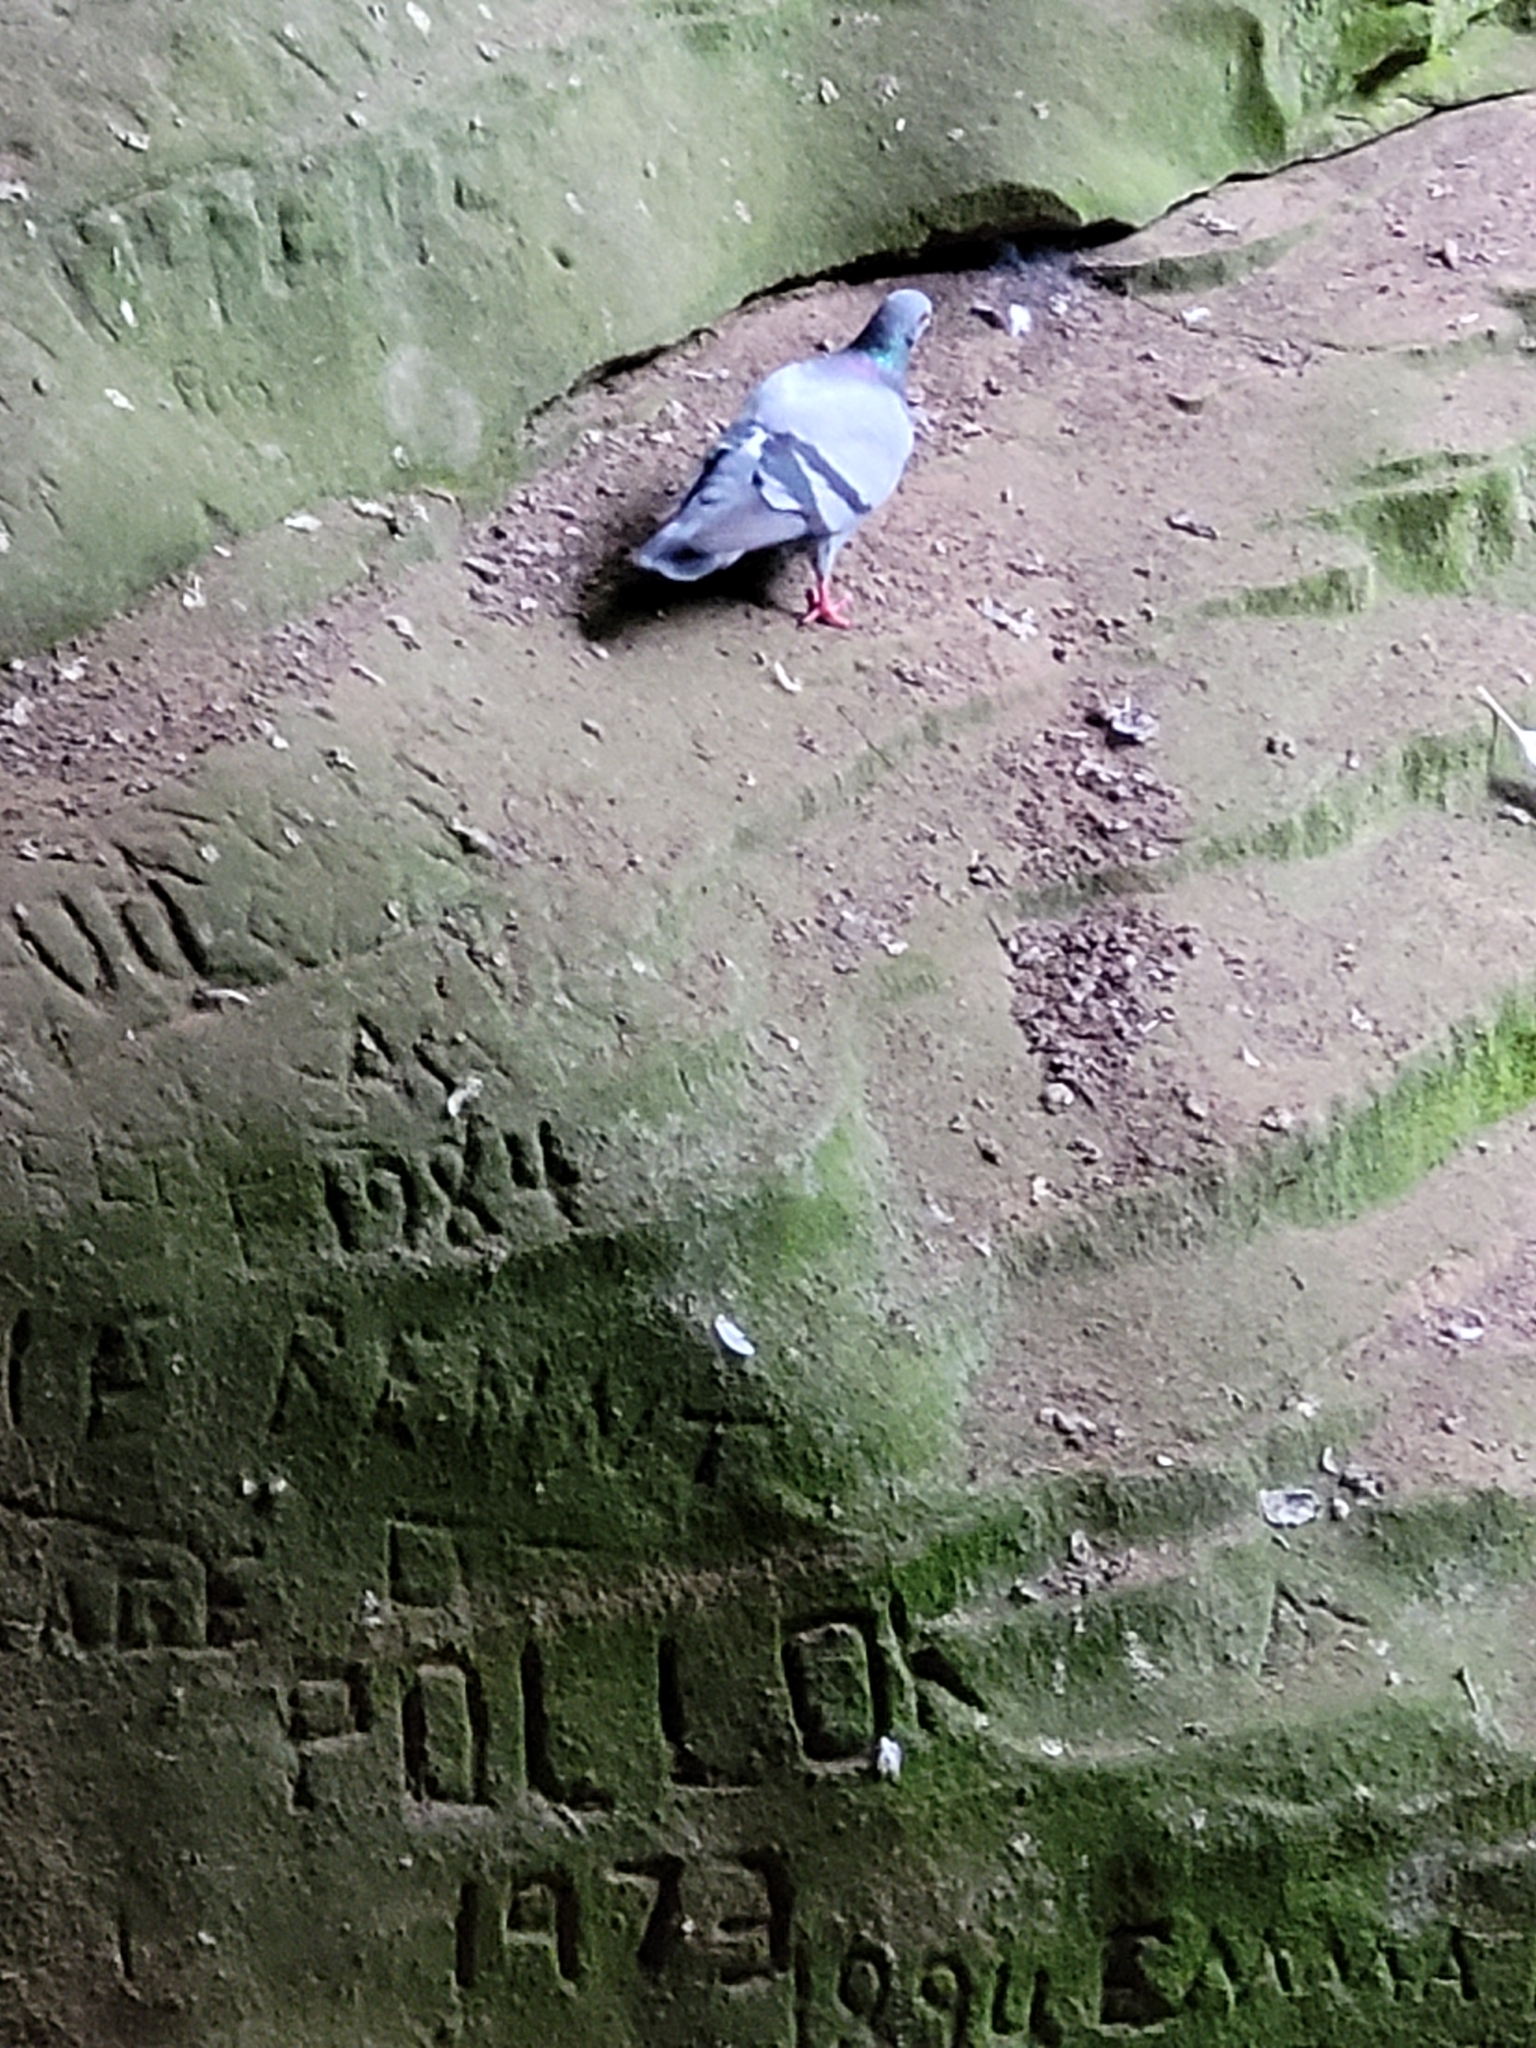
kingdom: Animalia
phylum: Chordata
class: Aves
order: Columbiformes
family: Columbidae
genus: Columba
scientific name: Columba livia
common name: Rock pigeon
